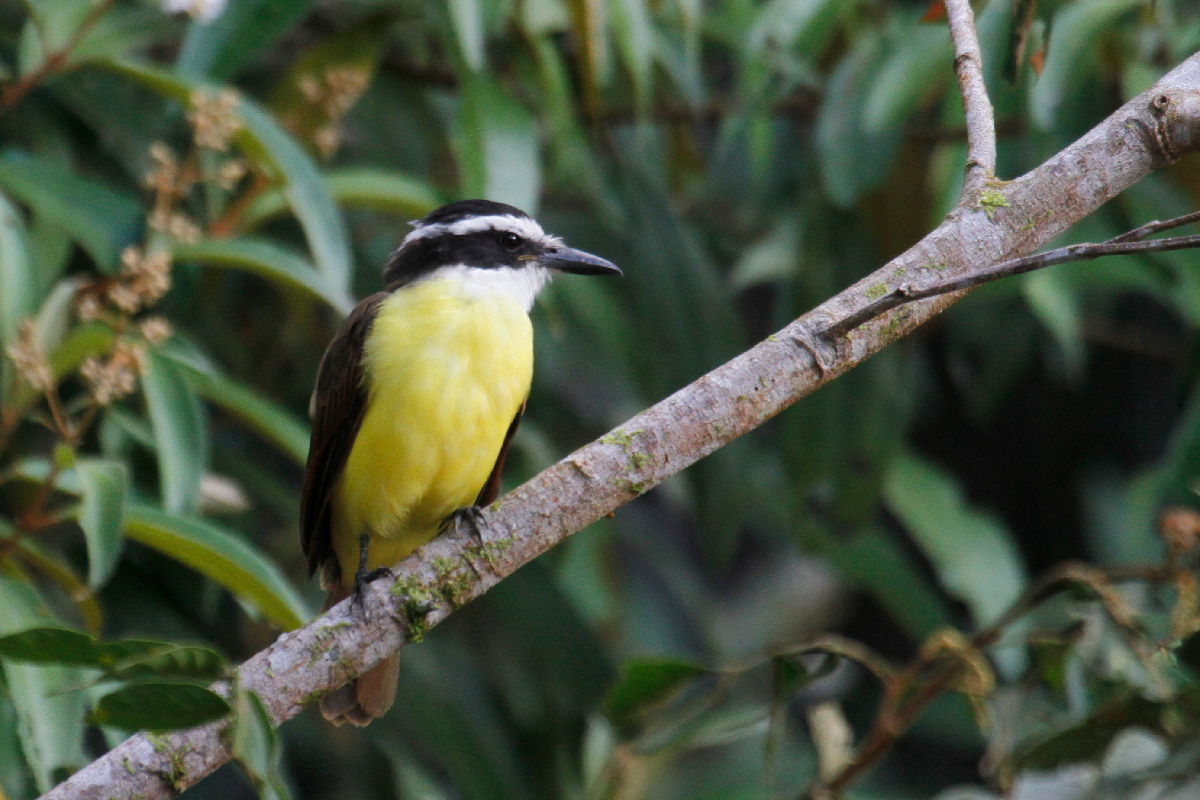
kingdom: Animalia
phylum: Chordata
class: Aves
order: Passeriformes
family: Tyrannidae
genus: Pitangus
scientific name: Pitangus sulphuratus
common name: Great kiskadee
